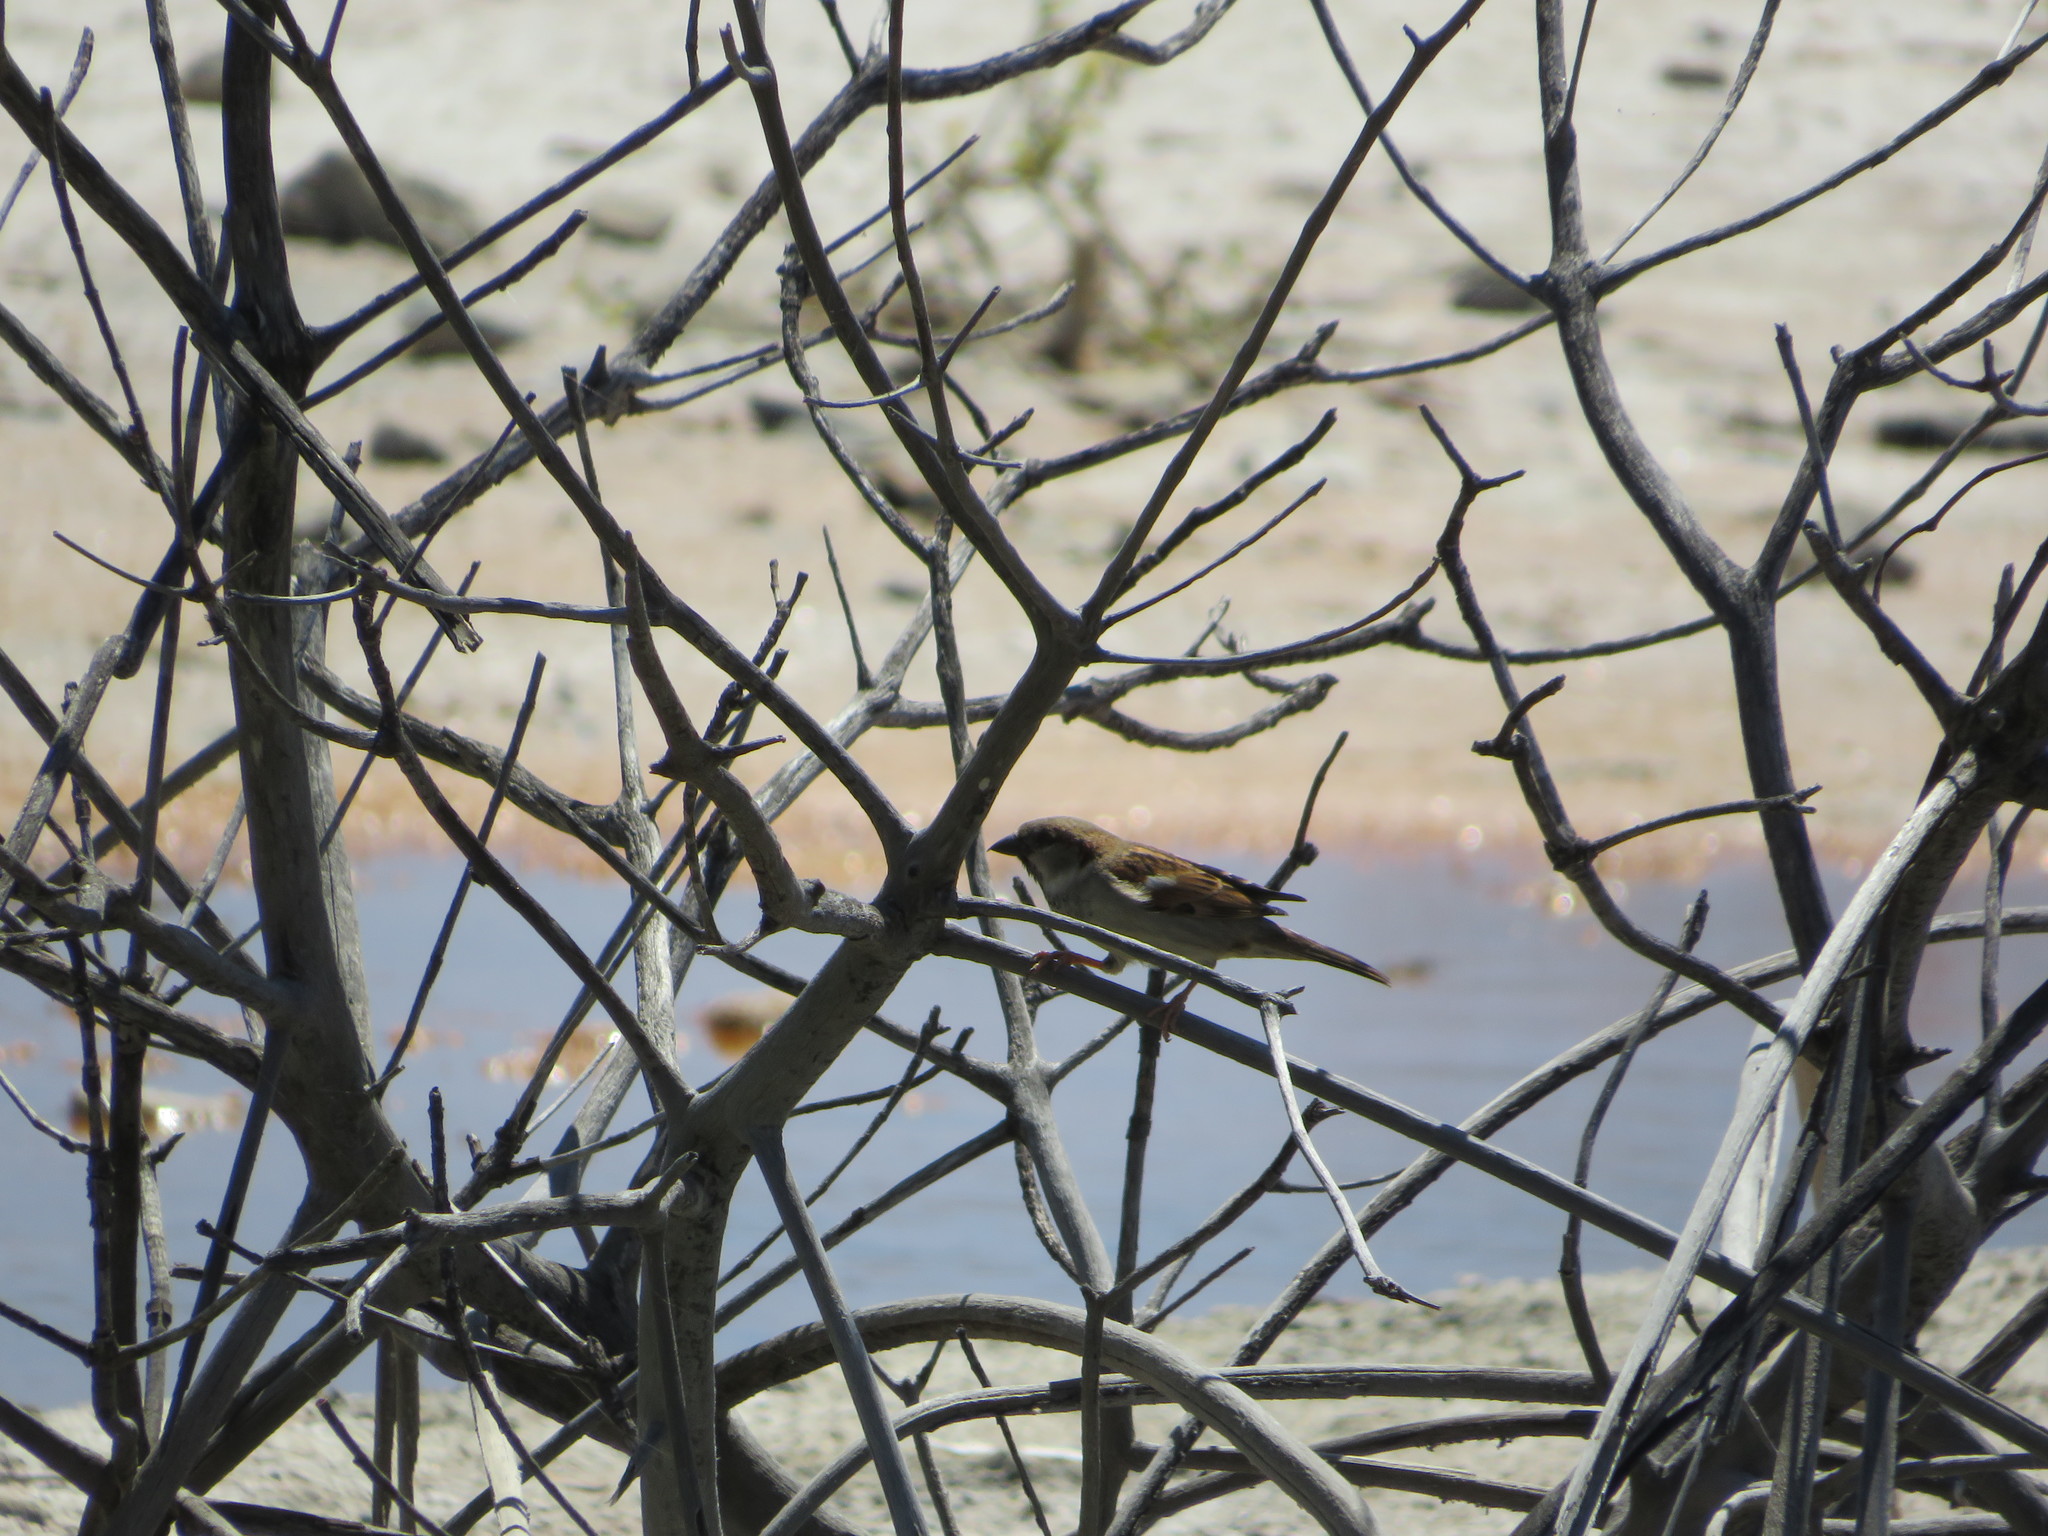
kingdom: Animalia
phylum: Chordata
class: Aves
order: Passeriformes
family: Passeridae
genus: Passer
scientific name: Passer domesticus
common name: House sparrow
